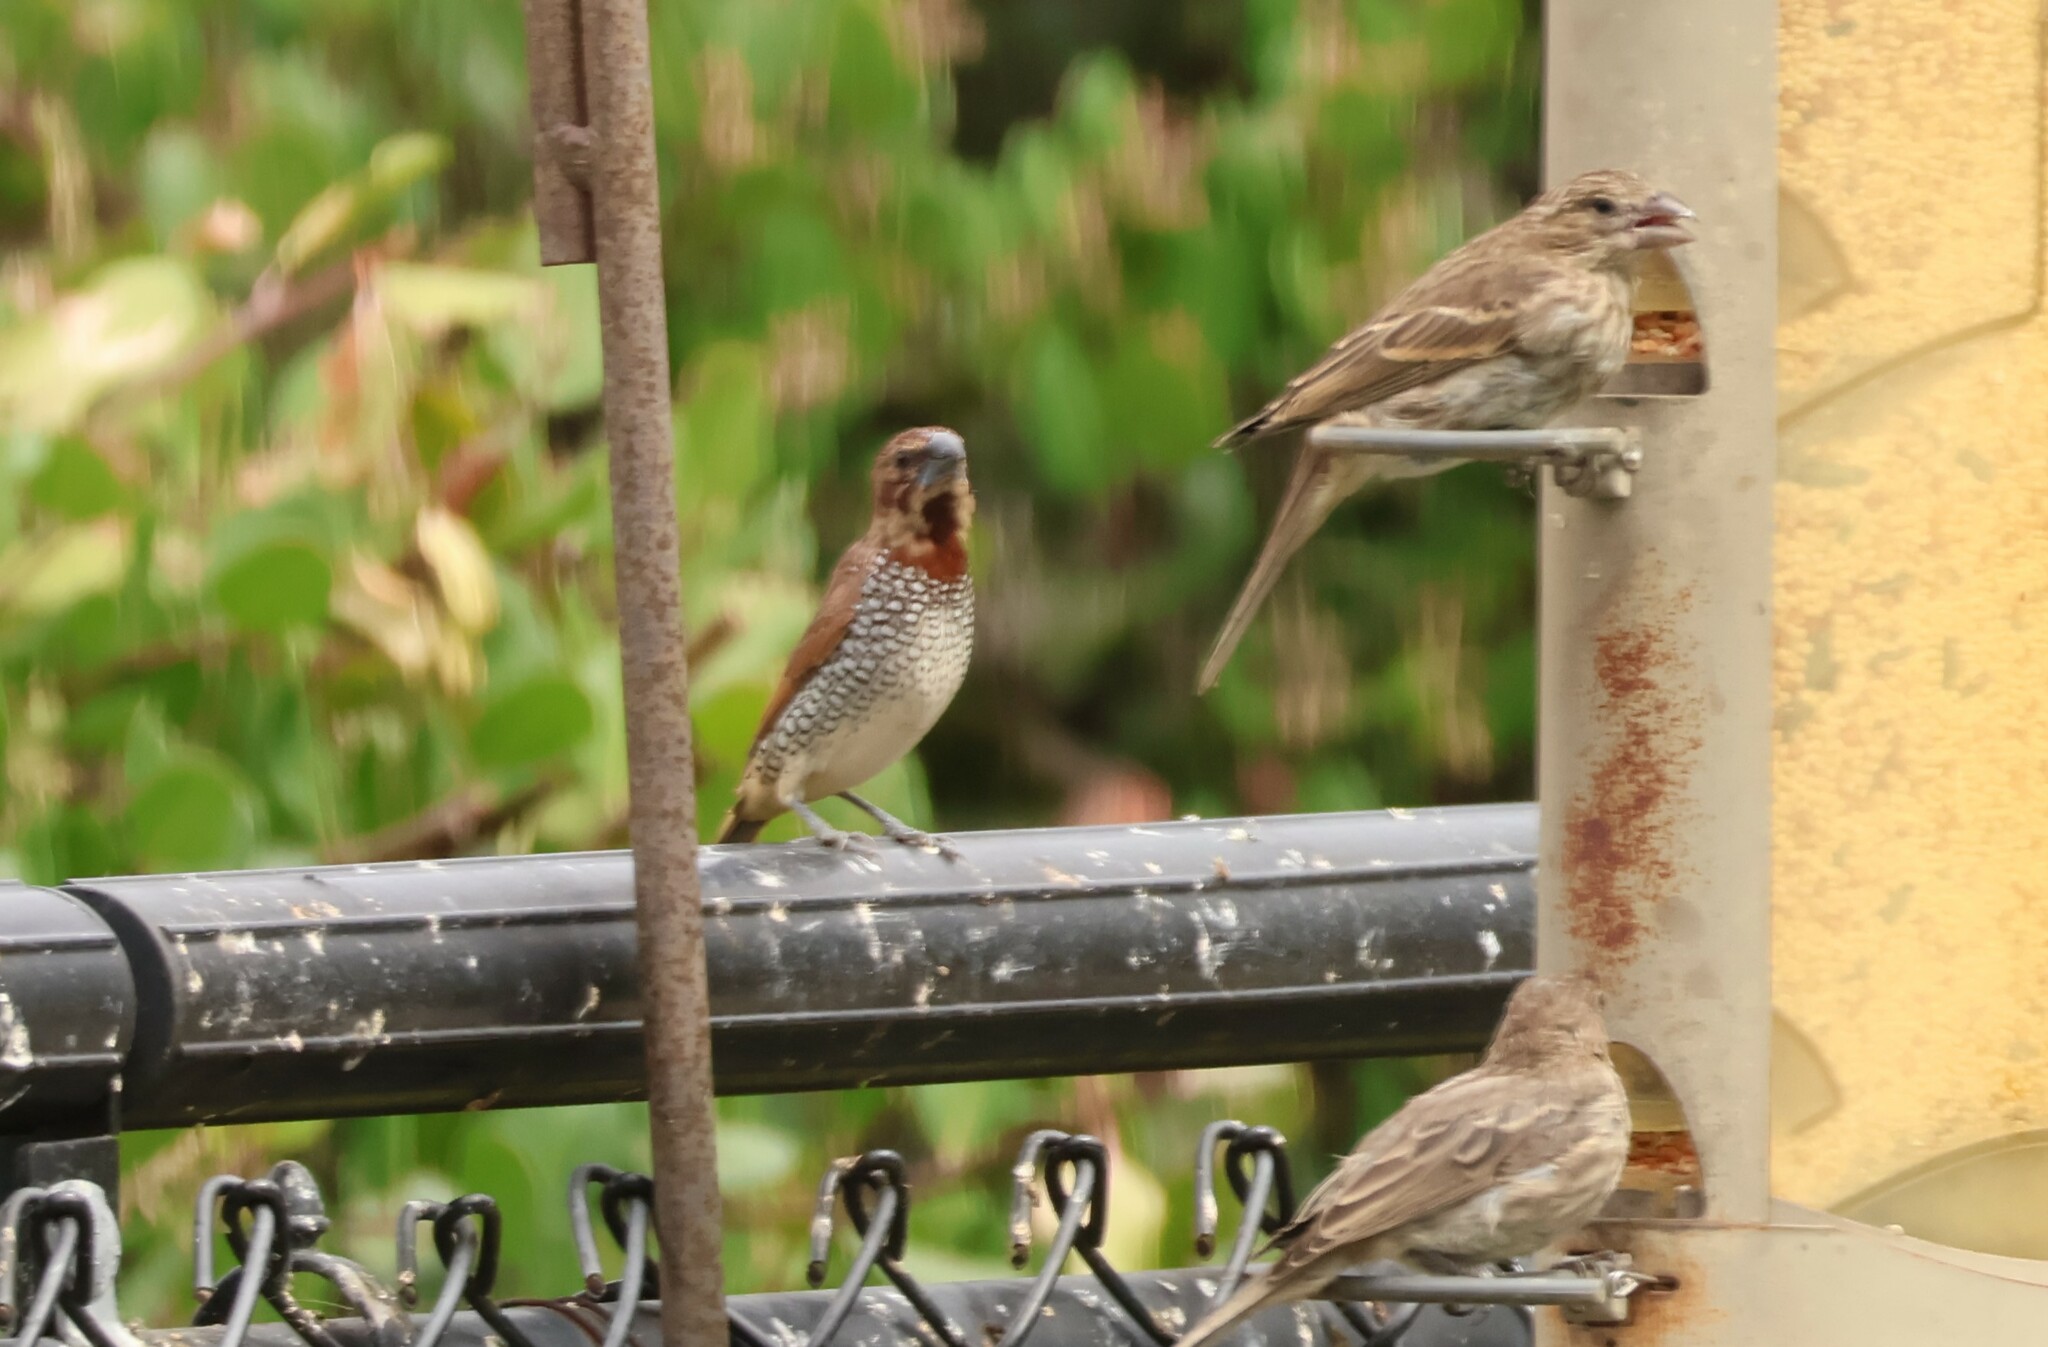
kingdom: Animalia
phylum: Chordata
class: Aves
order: Passeriformes
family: Estrildidae
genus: Lonchura
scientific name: Lonchura punctulata
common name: Scaly-breasted munia
